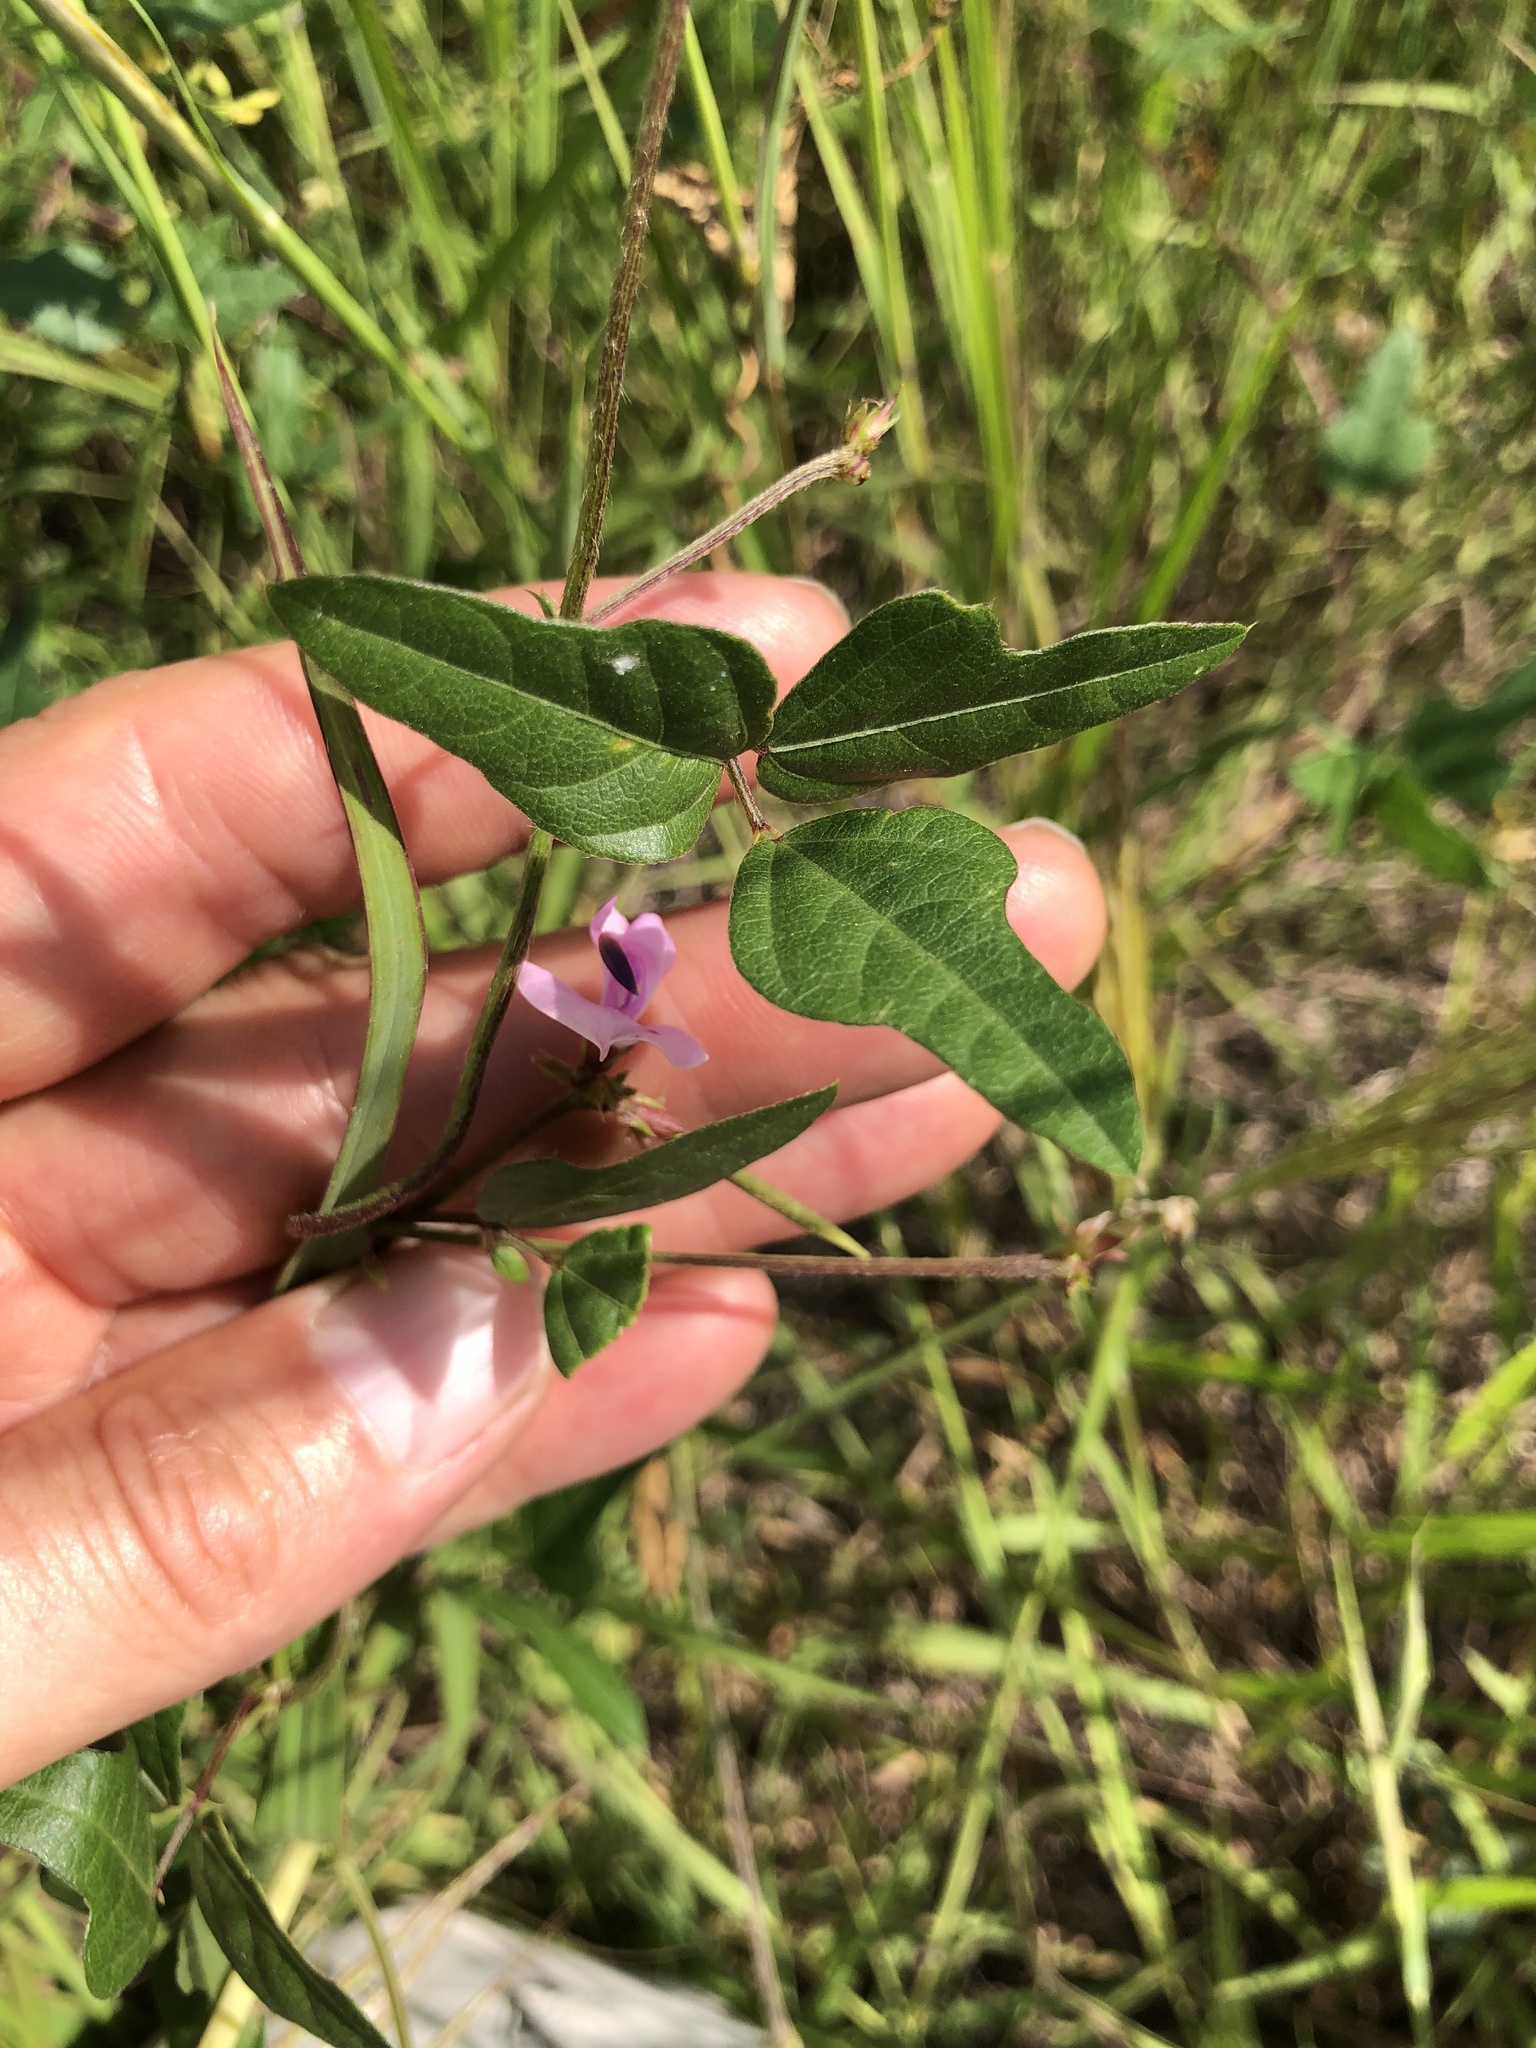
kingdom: Plantae
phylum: Tracheophyta
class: Magnoliopsida
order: Fabales
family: Fabaceae
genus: Strophostyles
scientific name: Strophostyles helvola
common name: Trailing wild bean
